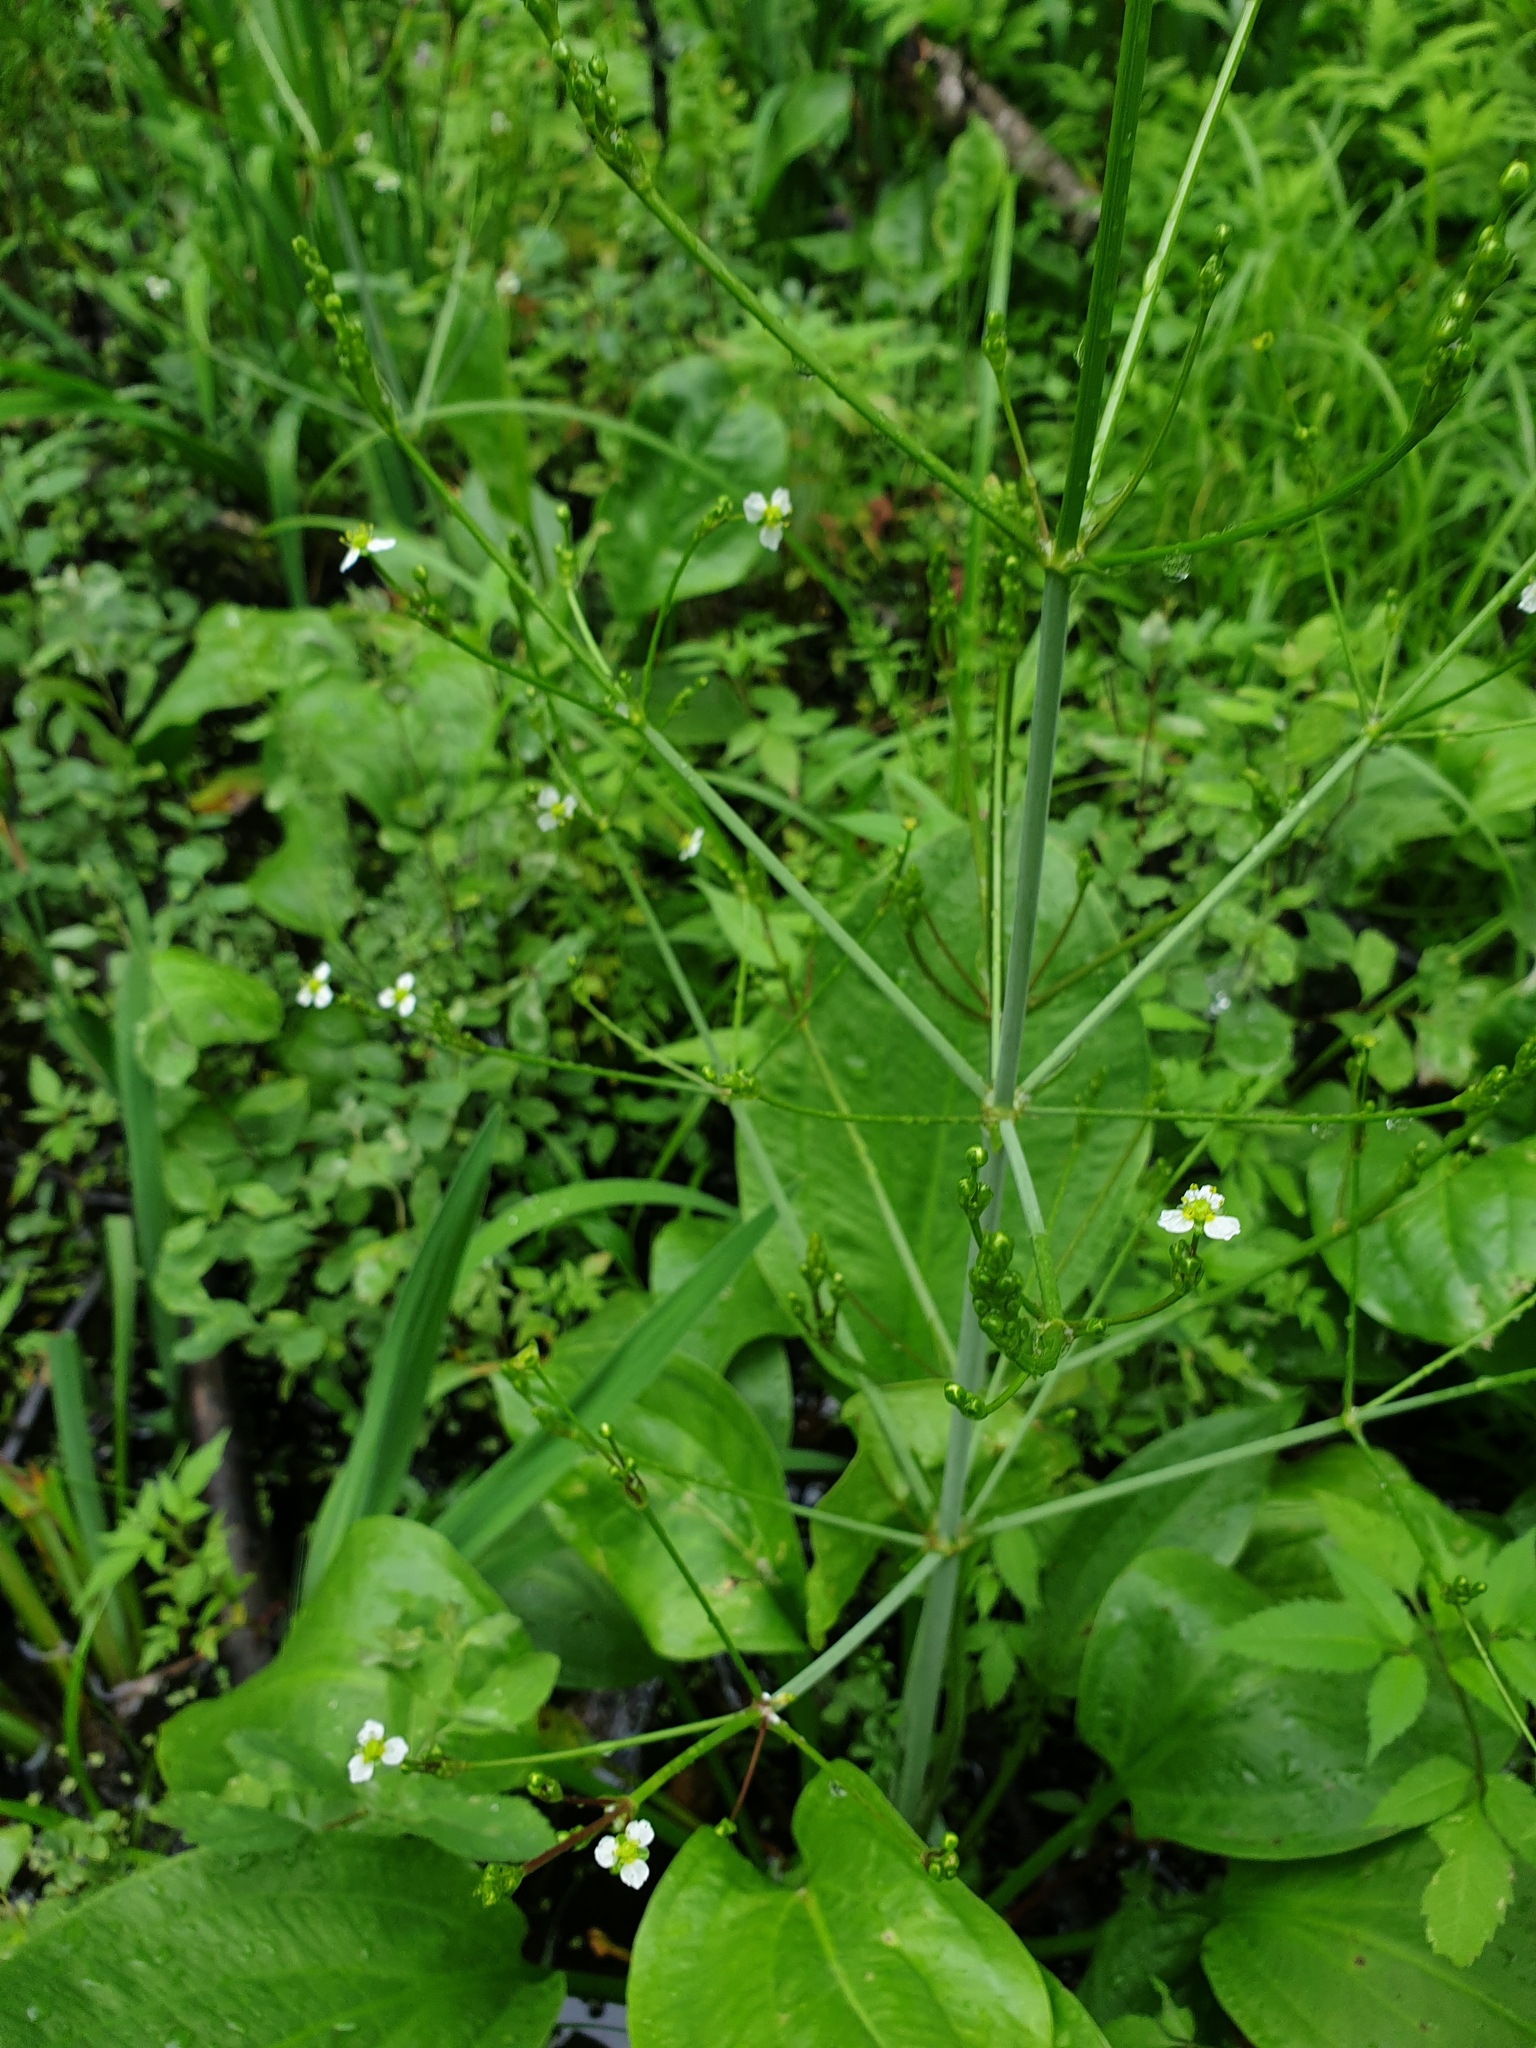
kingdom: Plantae
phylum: Tracheophyta
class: Liliopsida
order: Alismatales
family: Alismataceae
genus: Alisma
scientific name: Alisma subcordatum
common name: Southern water-plantain
